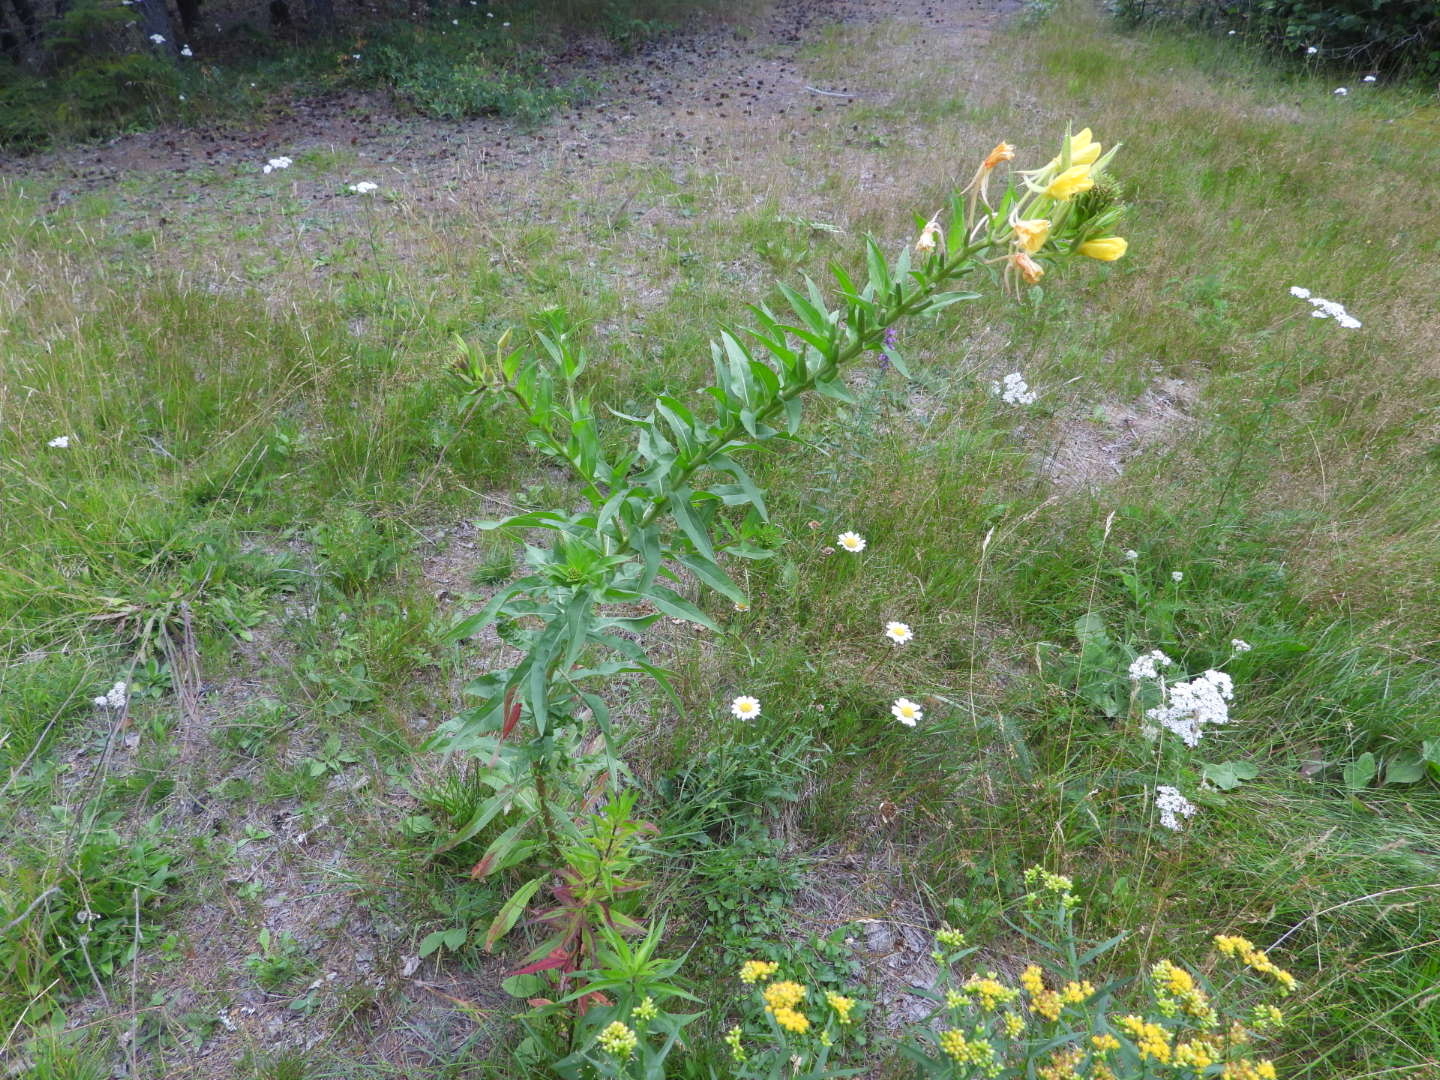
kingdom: Plantae
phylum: Tracheophyta
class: Magnoliopsida
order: Myrtales
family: Onagraceae
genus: Oenothera
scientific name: Oenothera biennis
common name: Common evening-primrose
